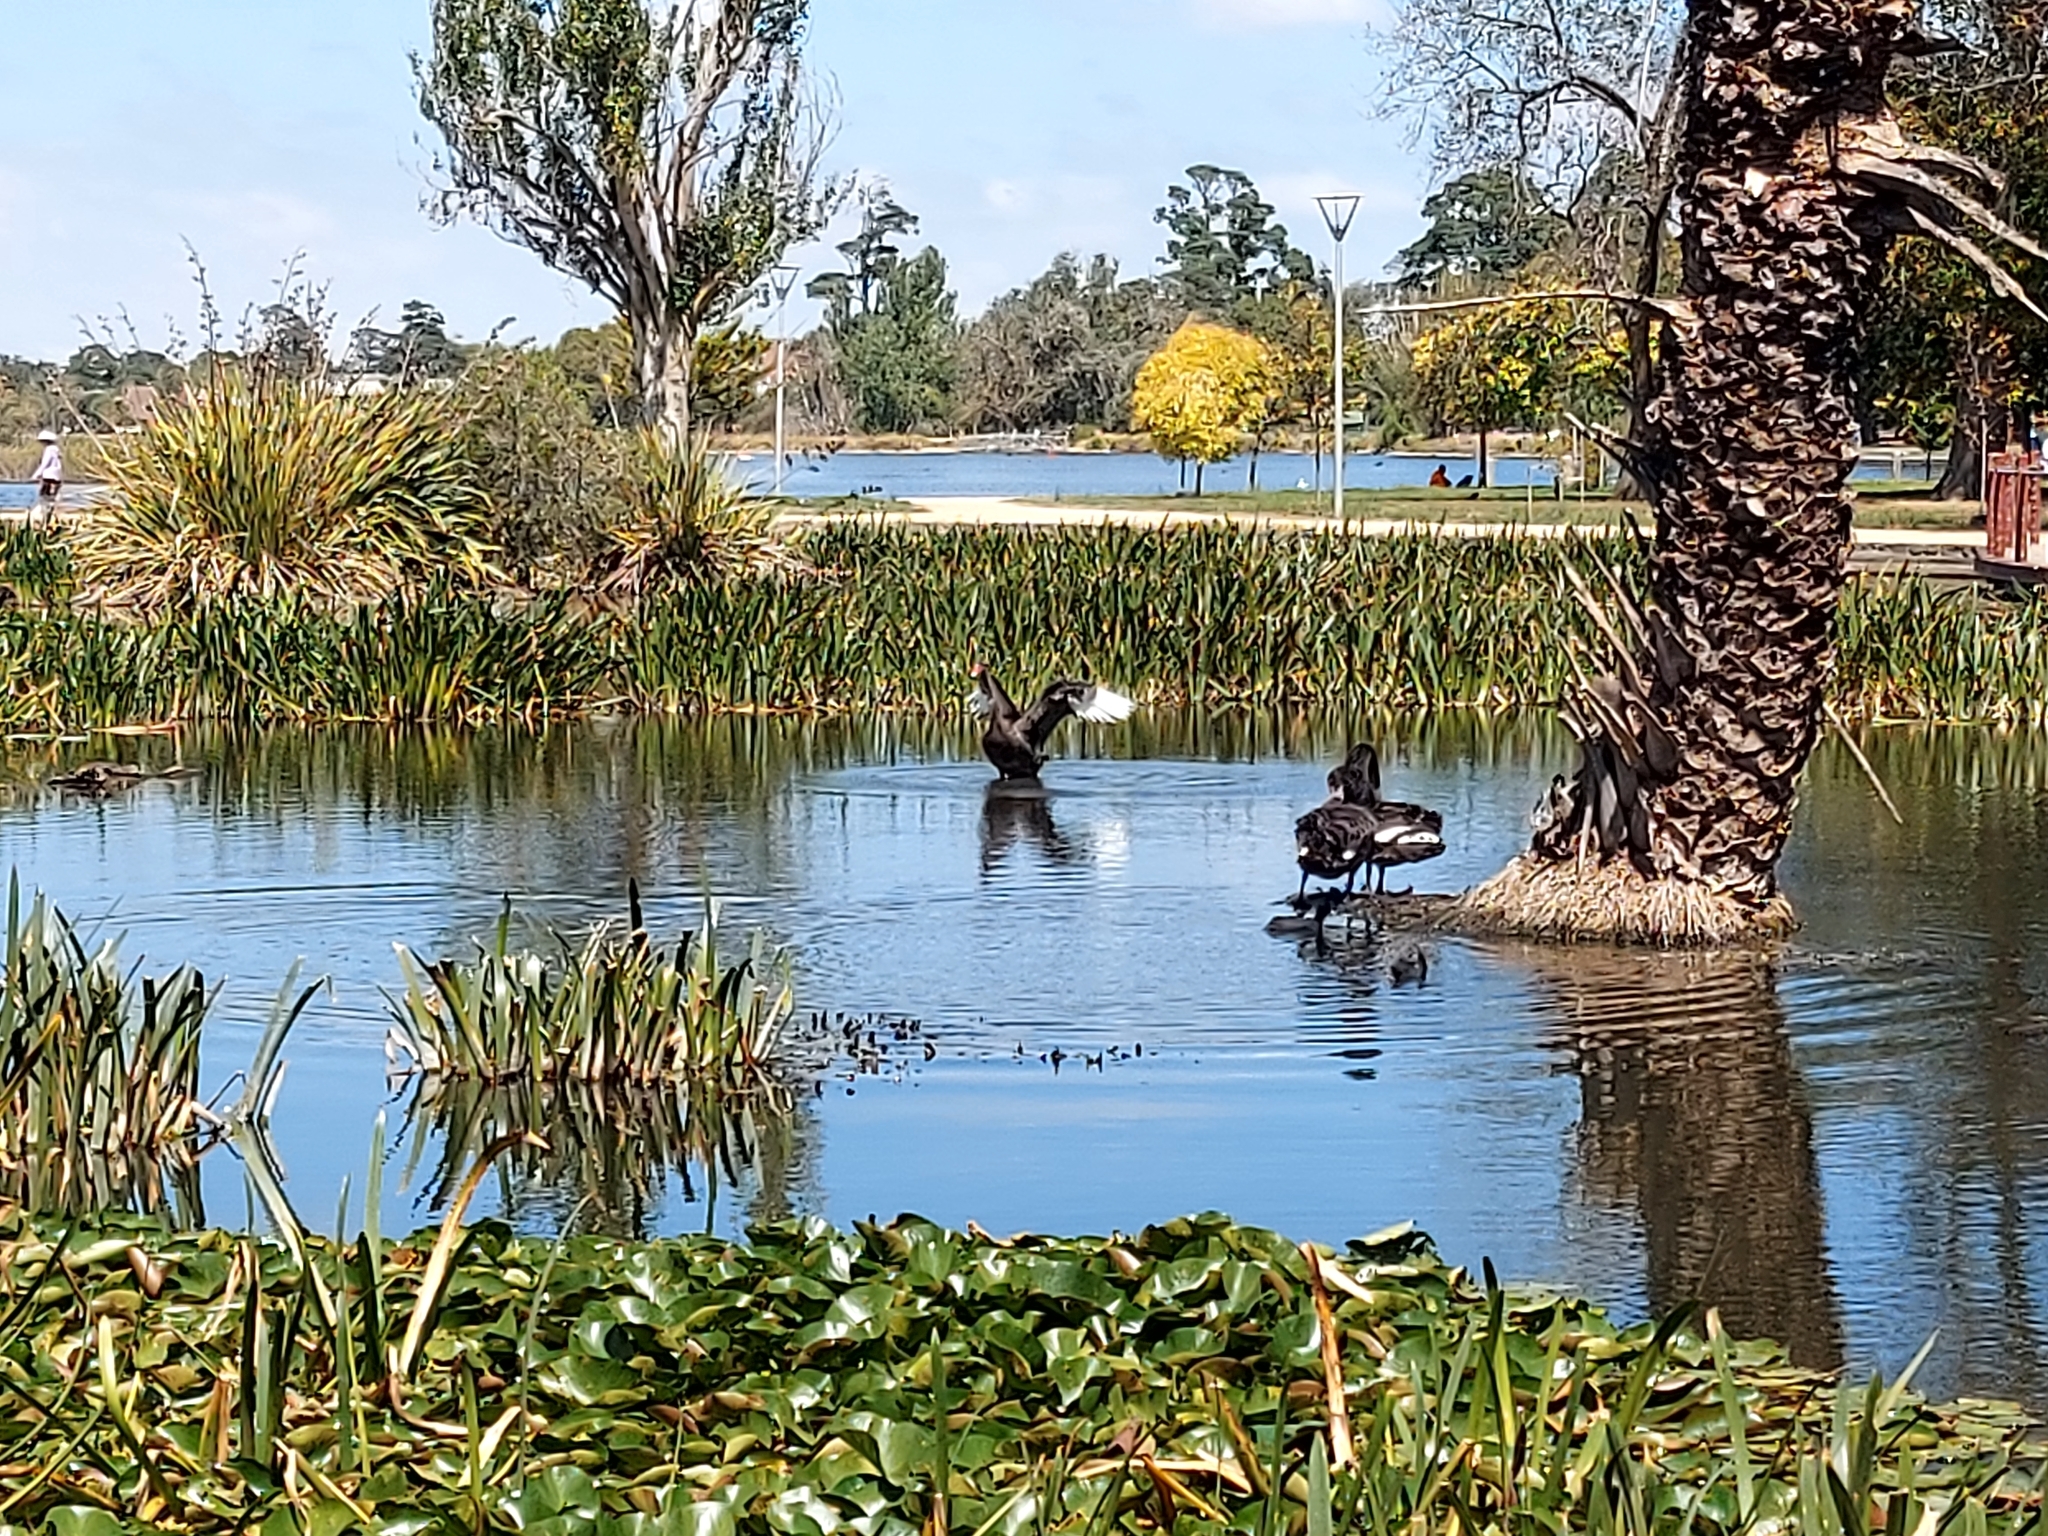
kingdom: Animalia
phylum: Chordata
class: Aves
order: Anseriformes
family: Anatidae
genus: Cygnus
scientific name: Cygnus atratus
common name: Black swan
